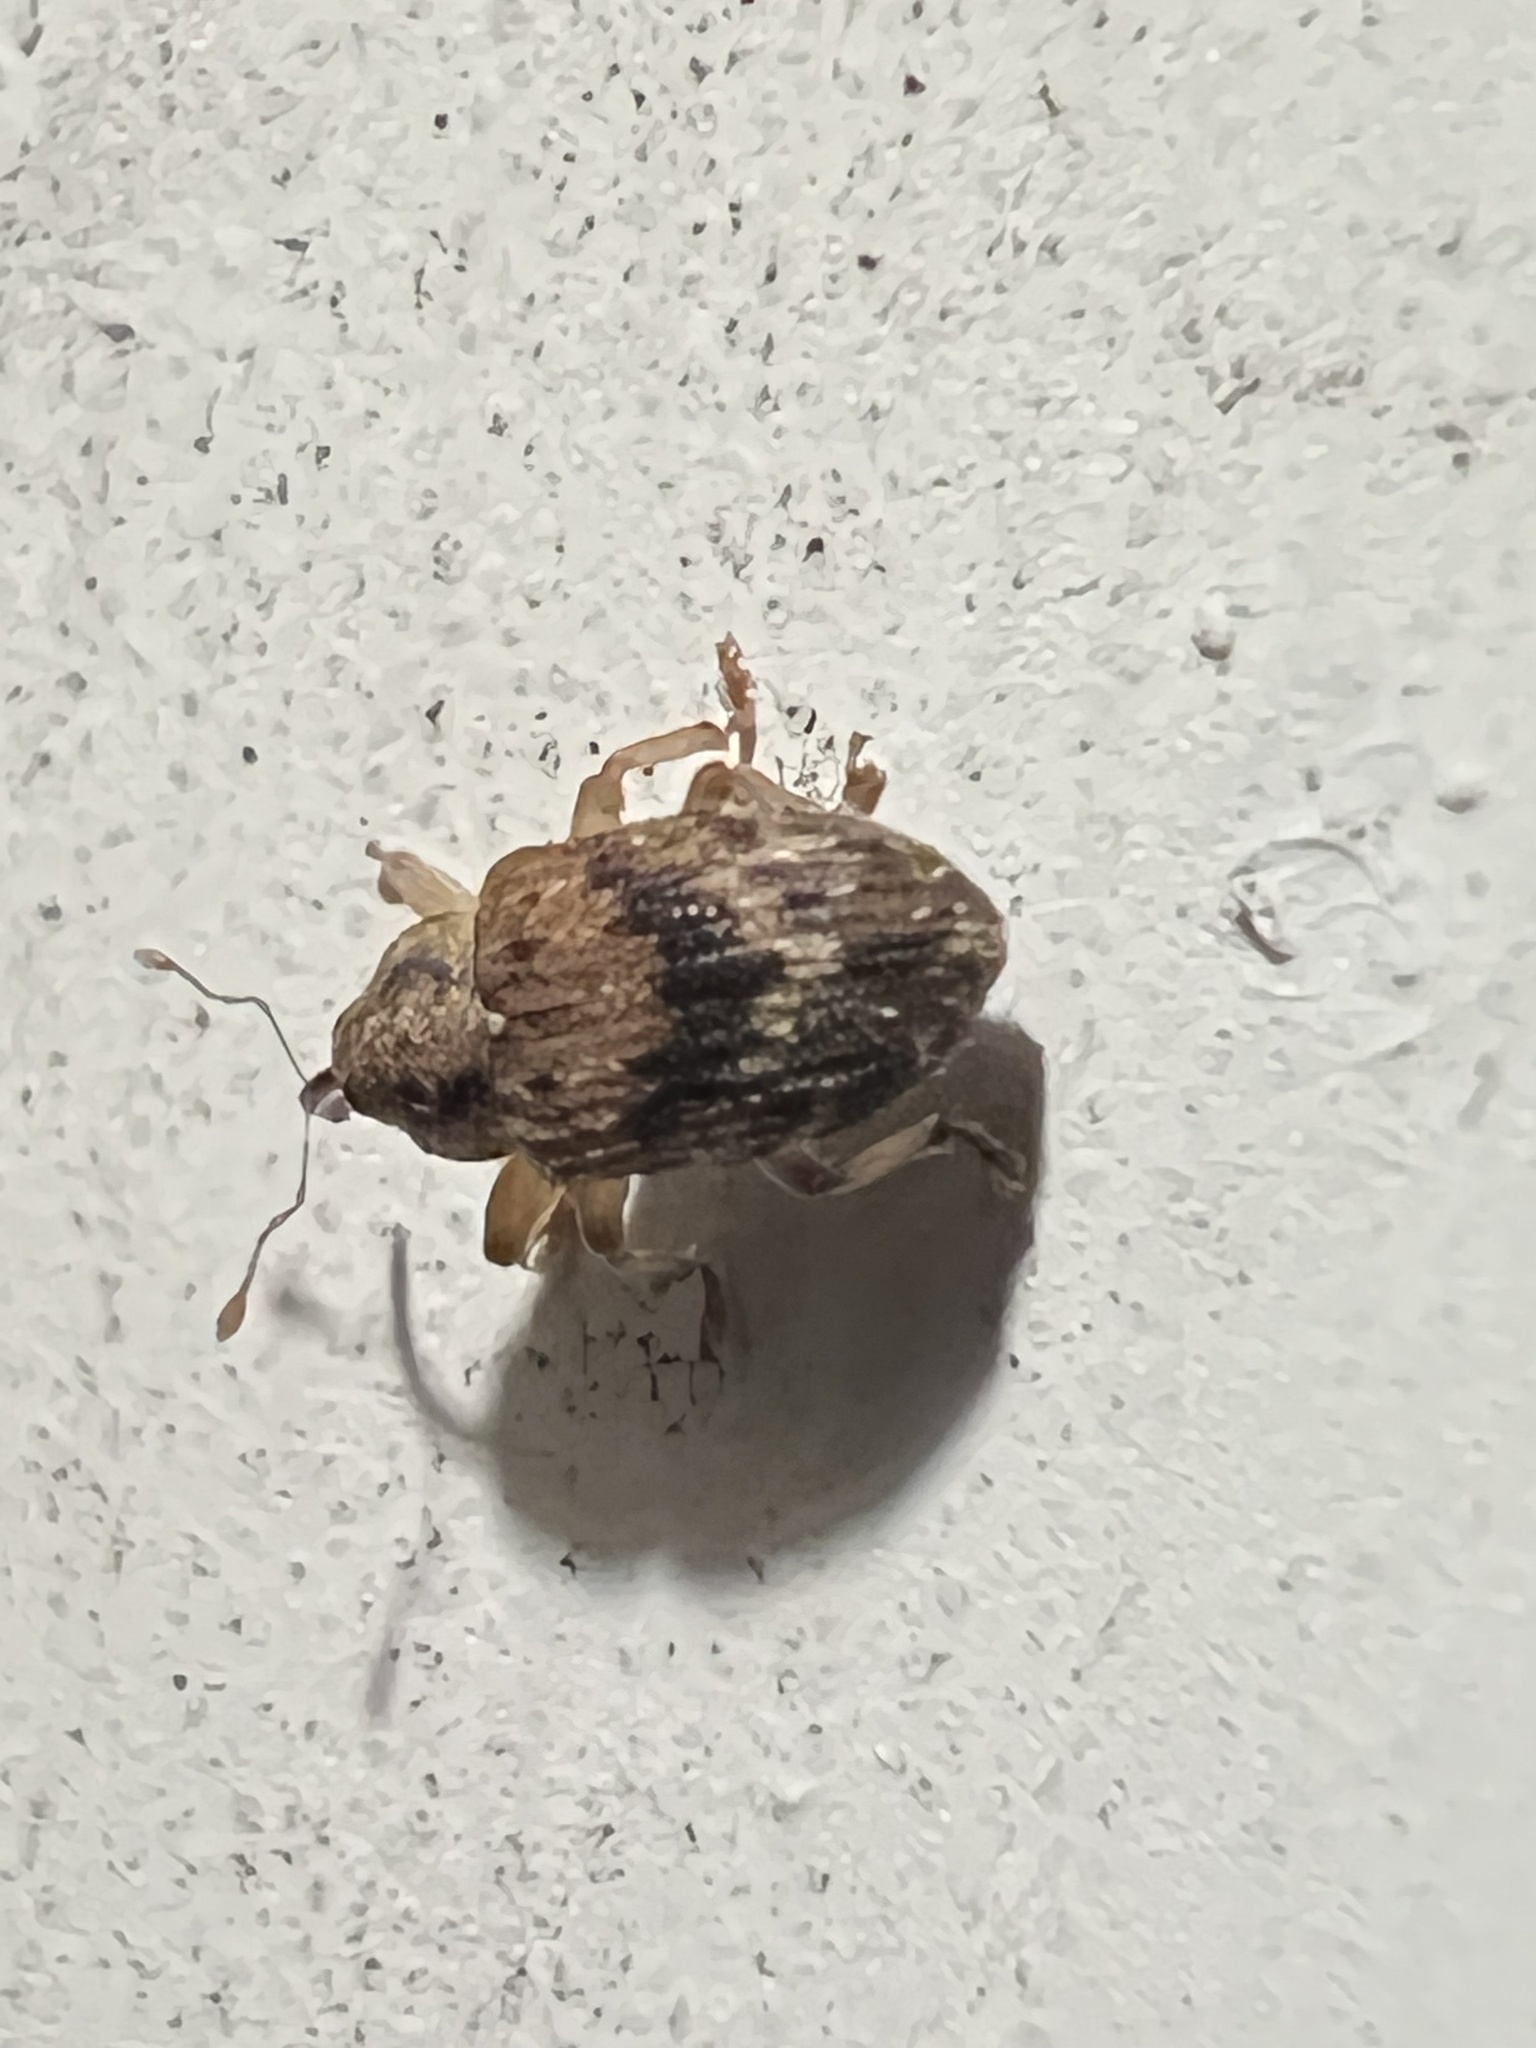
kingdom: Animalia
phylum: Arthropoda
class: Insecta
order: Coleoptera
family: Curculionidae
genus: Thysanocnemis
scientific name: Thysanocnemis bischoffi
